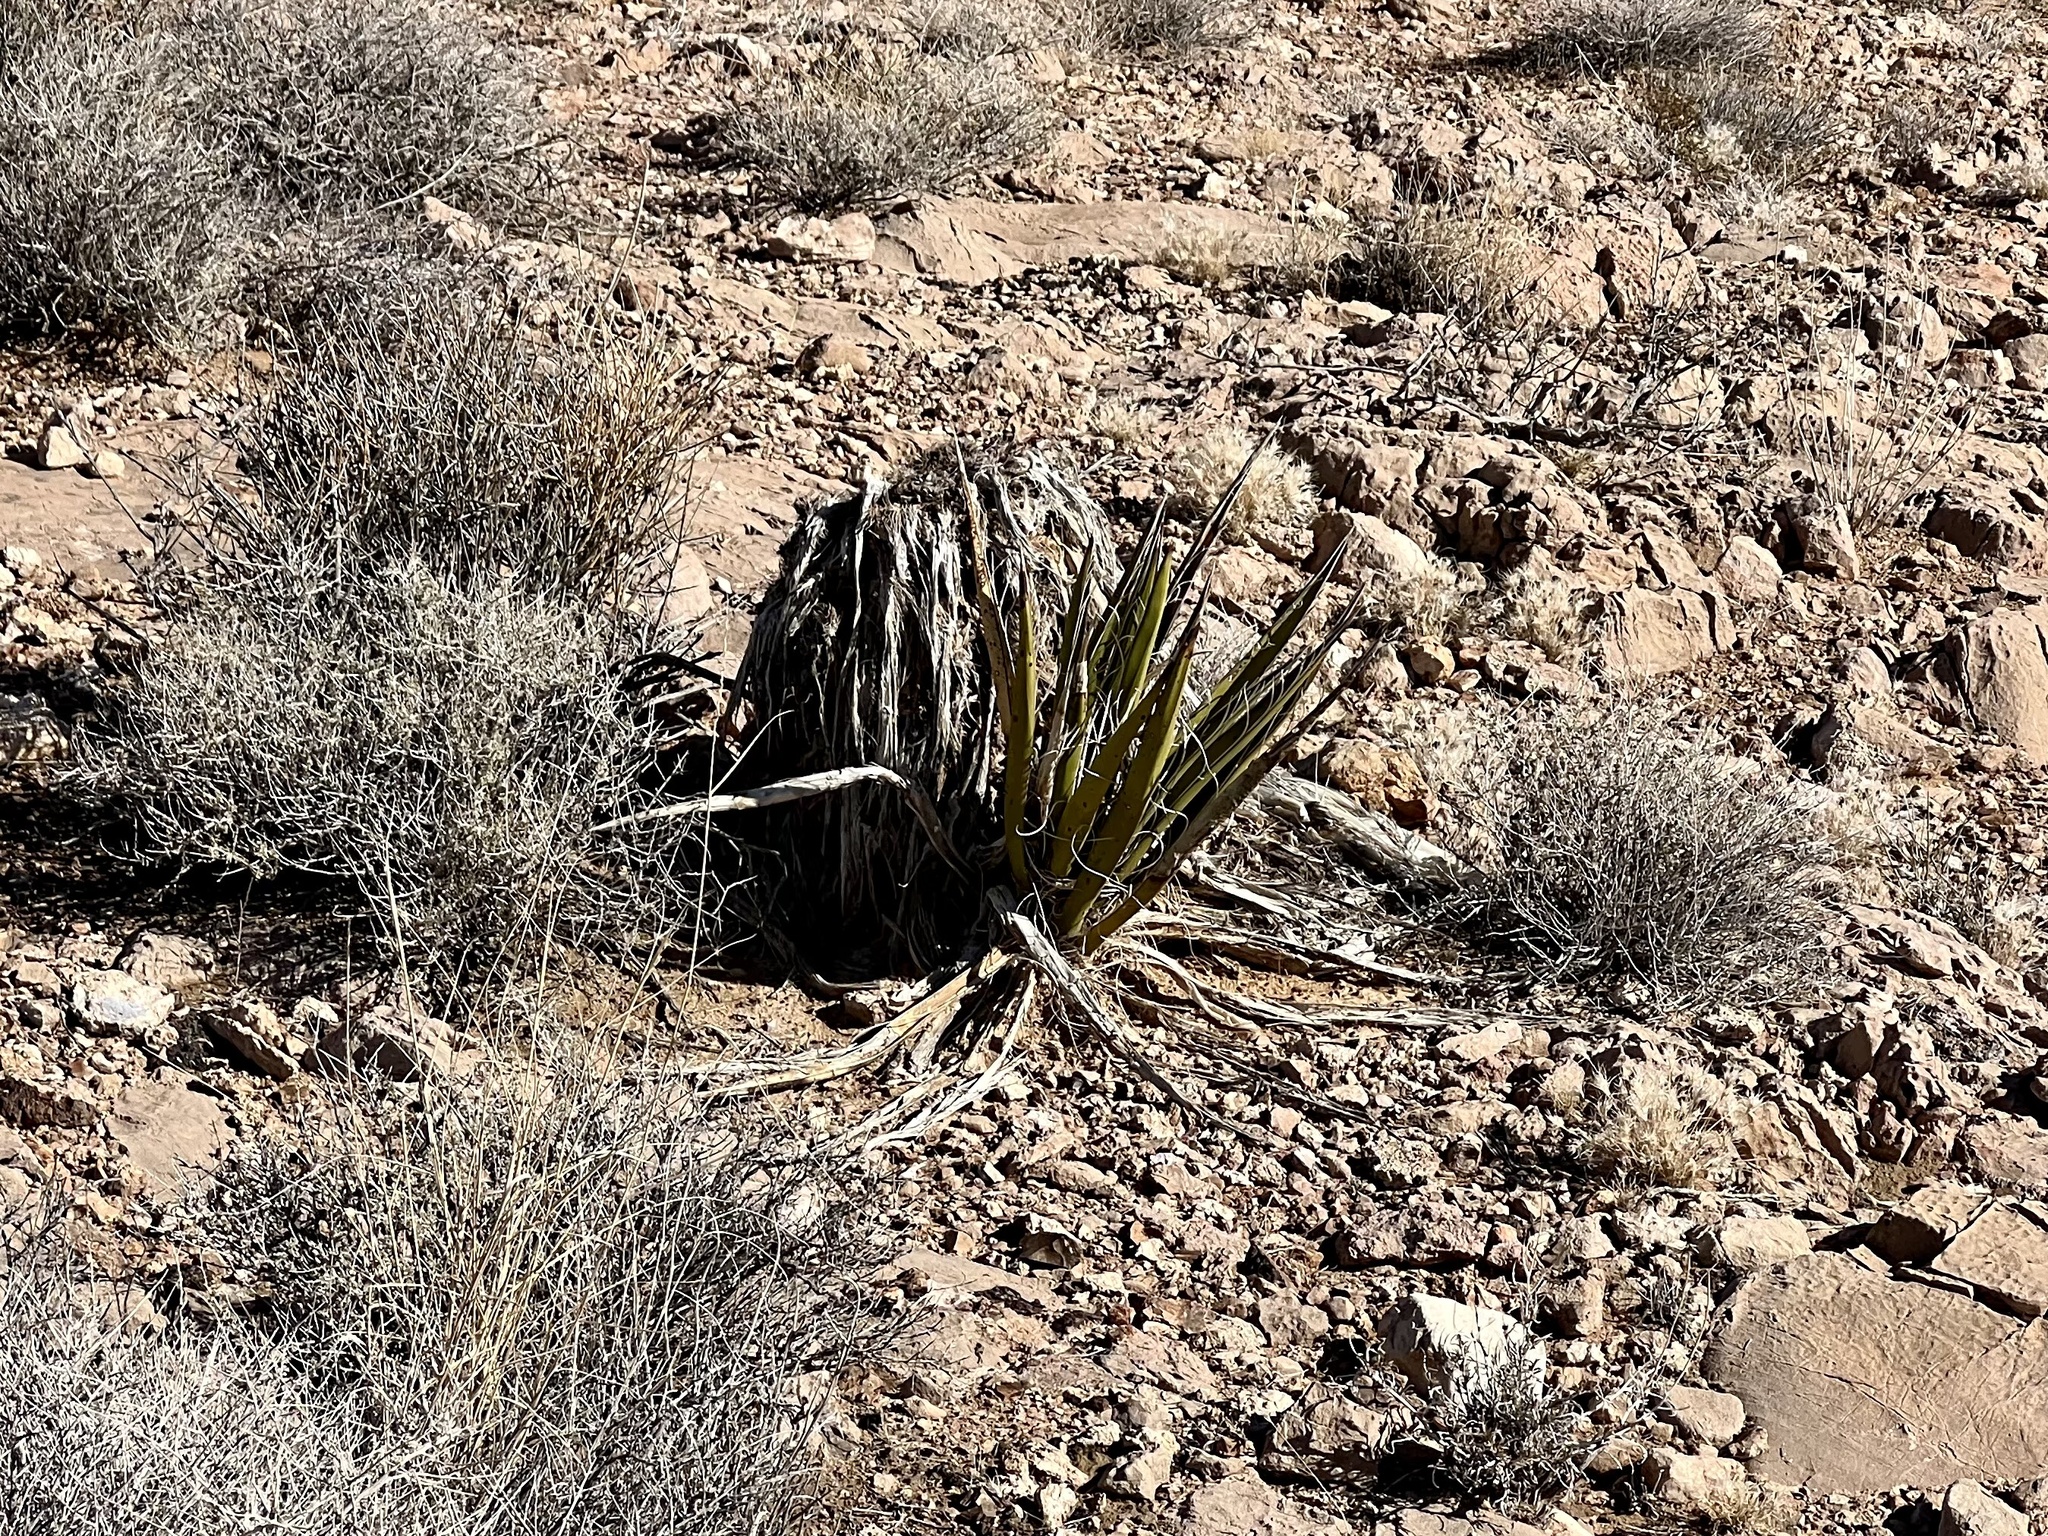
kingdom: Plantae
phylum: Tracheophyta
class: Liliopsida
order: Asparagales
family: Asparagaceae
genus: Yucca
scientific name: Yucca schidigera
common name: Mojave yucca
